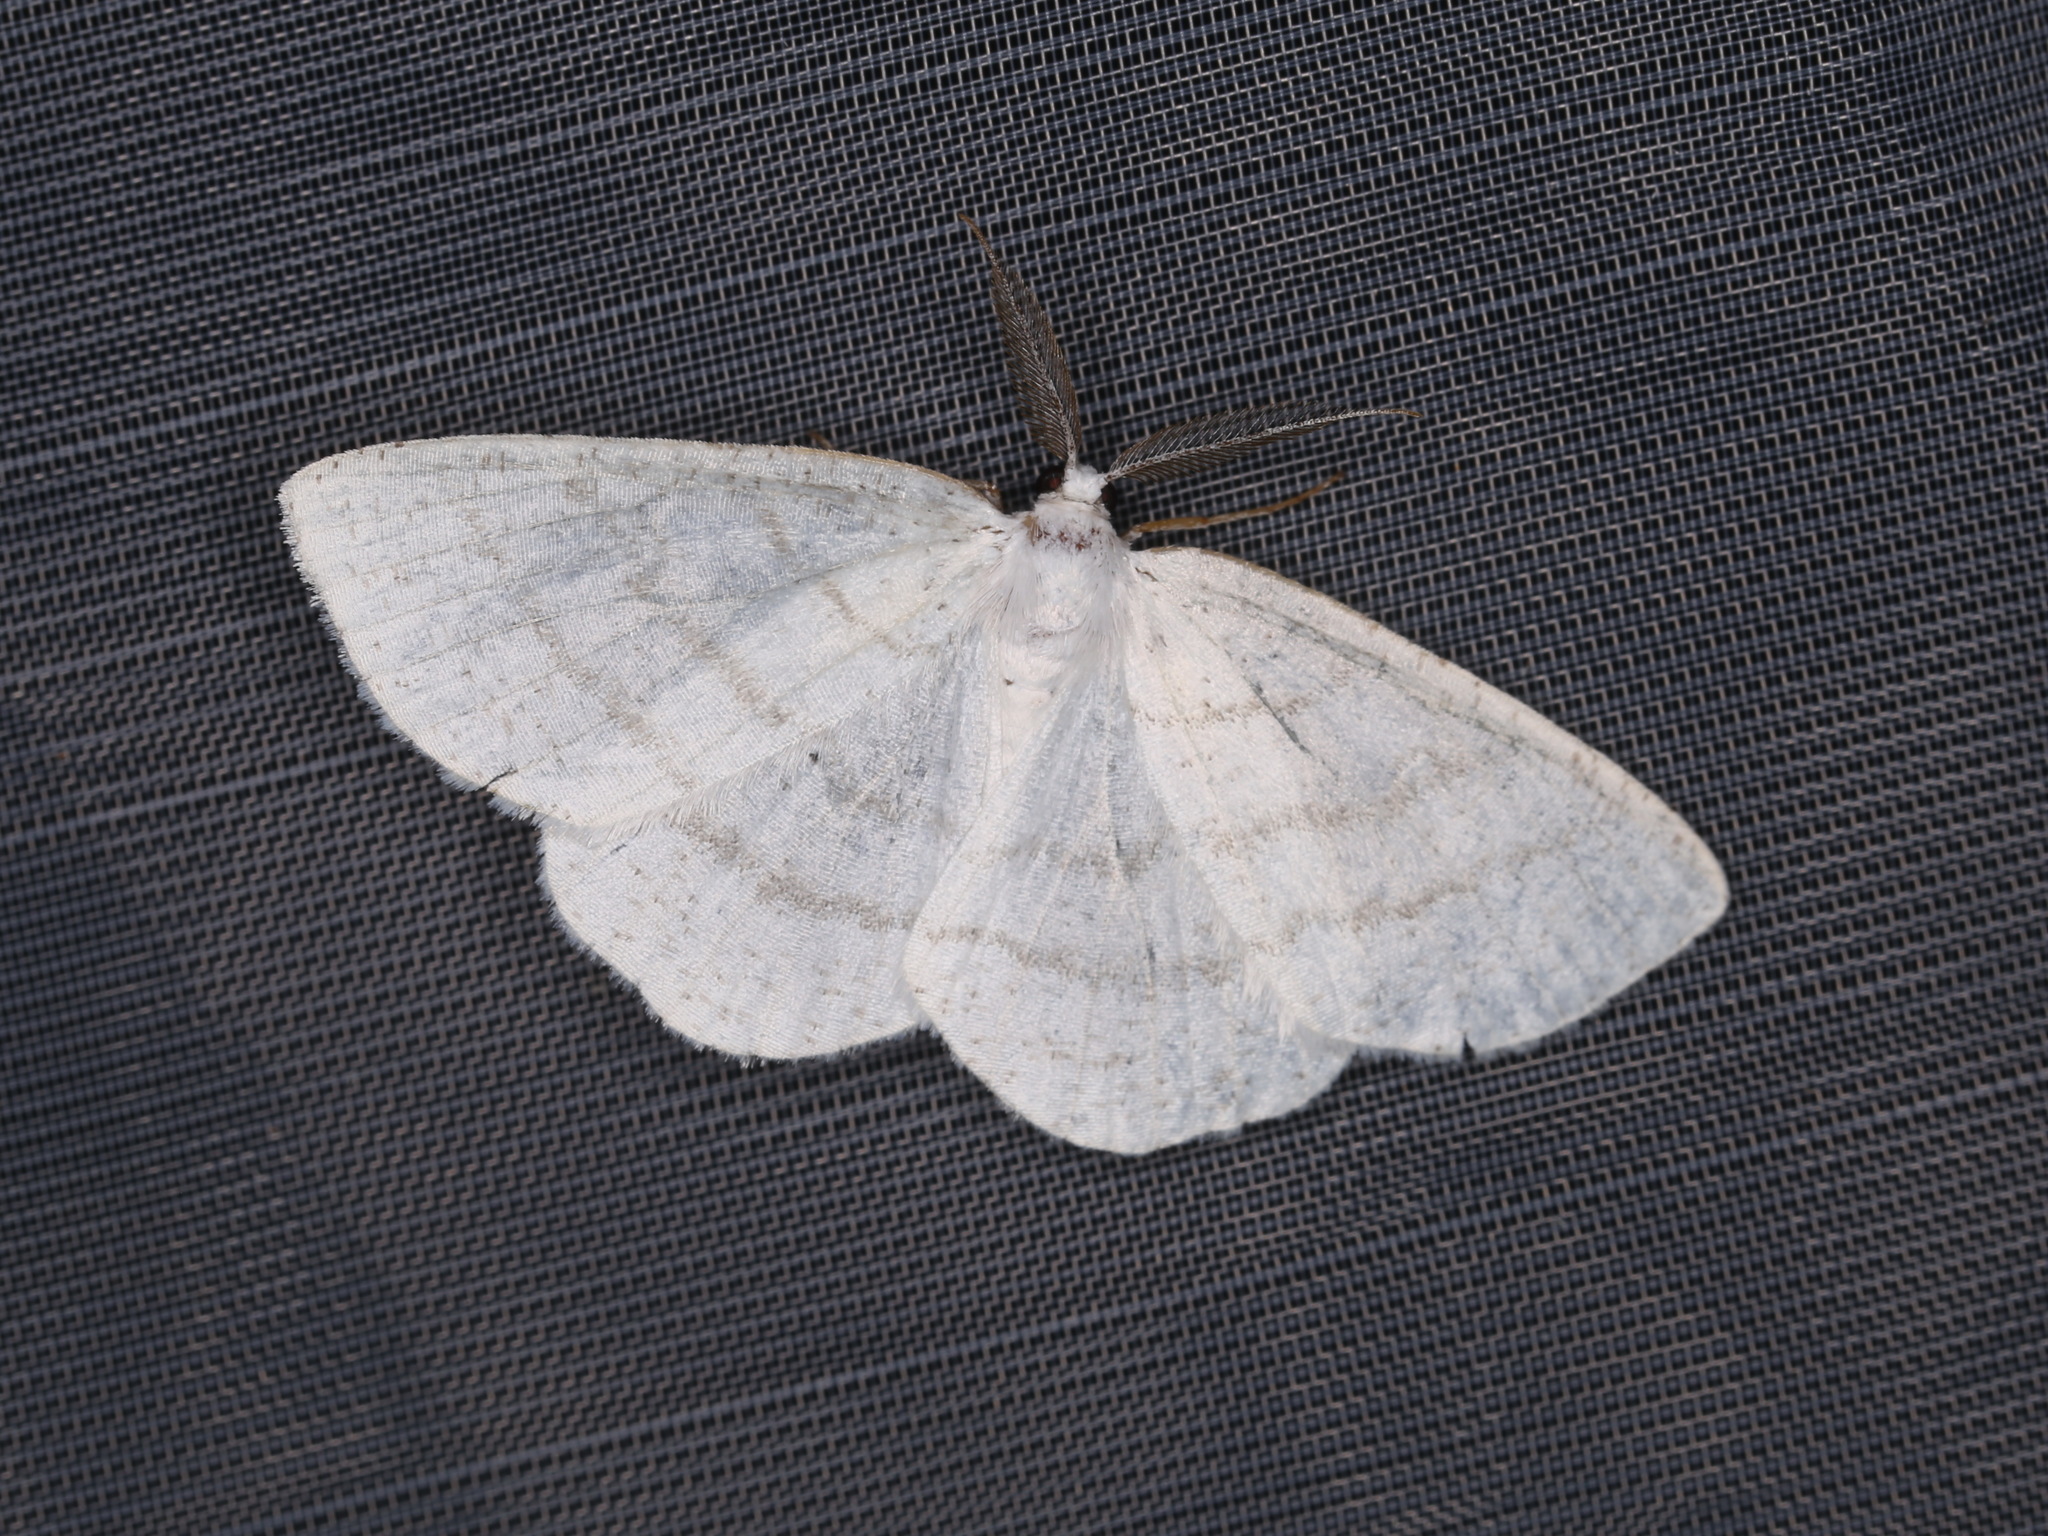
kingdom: Animalia
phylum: Arthropoda
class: Insecta
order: Lepidoptera
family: Geometridae
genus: Cabera
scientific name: Cabera pusaria
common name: Common white wave
